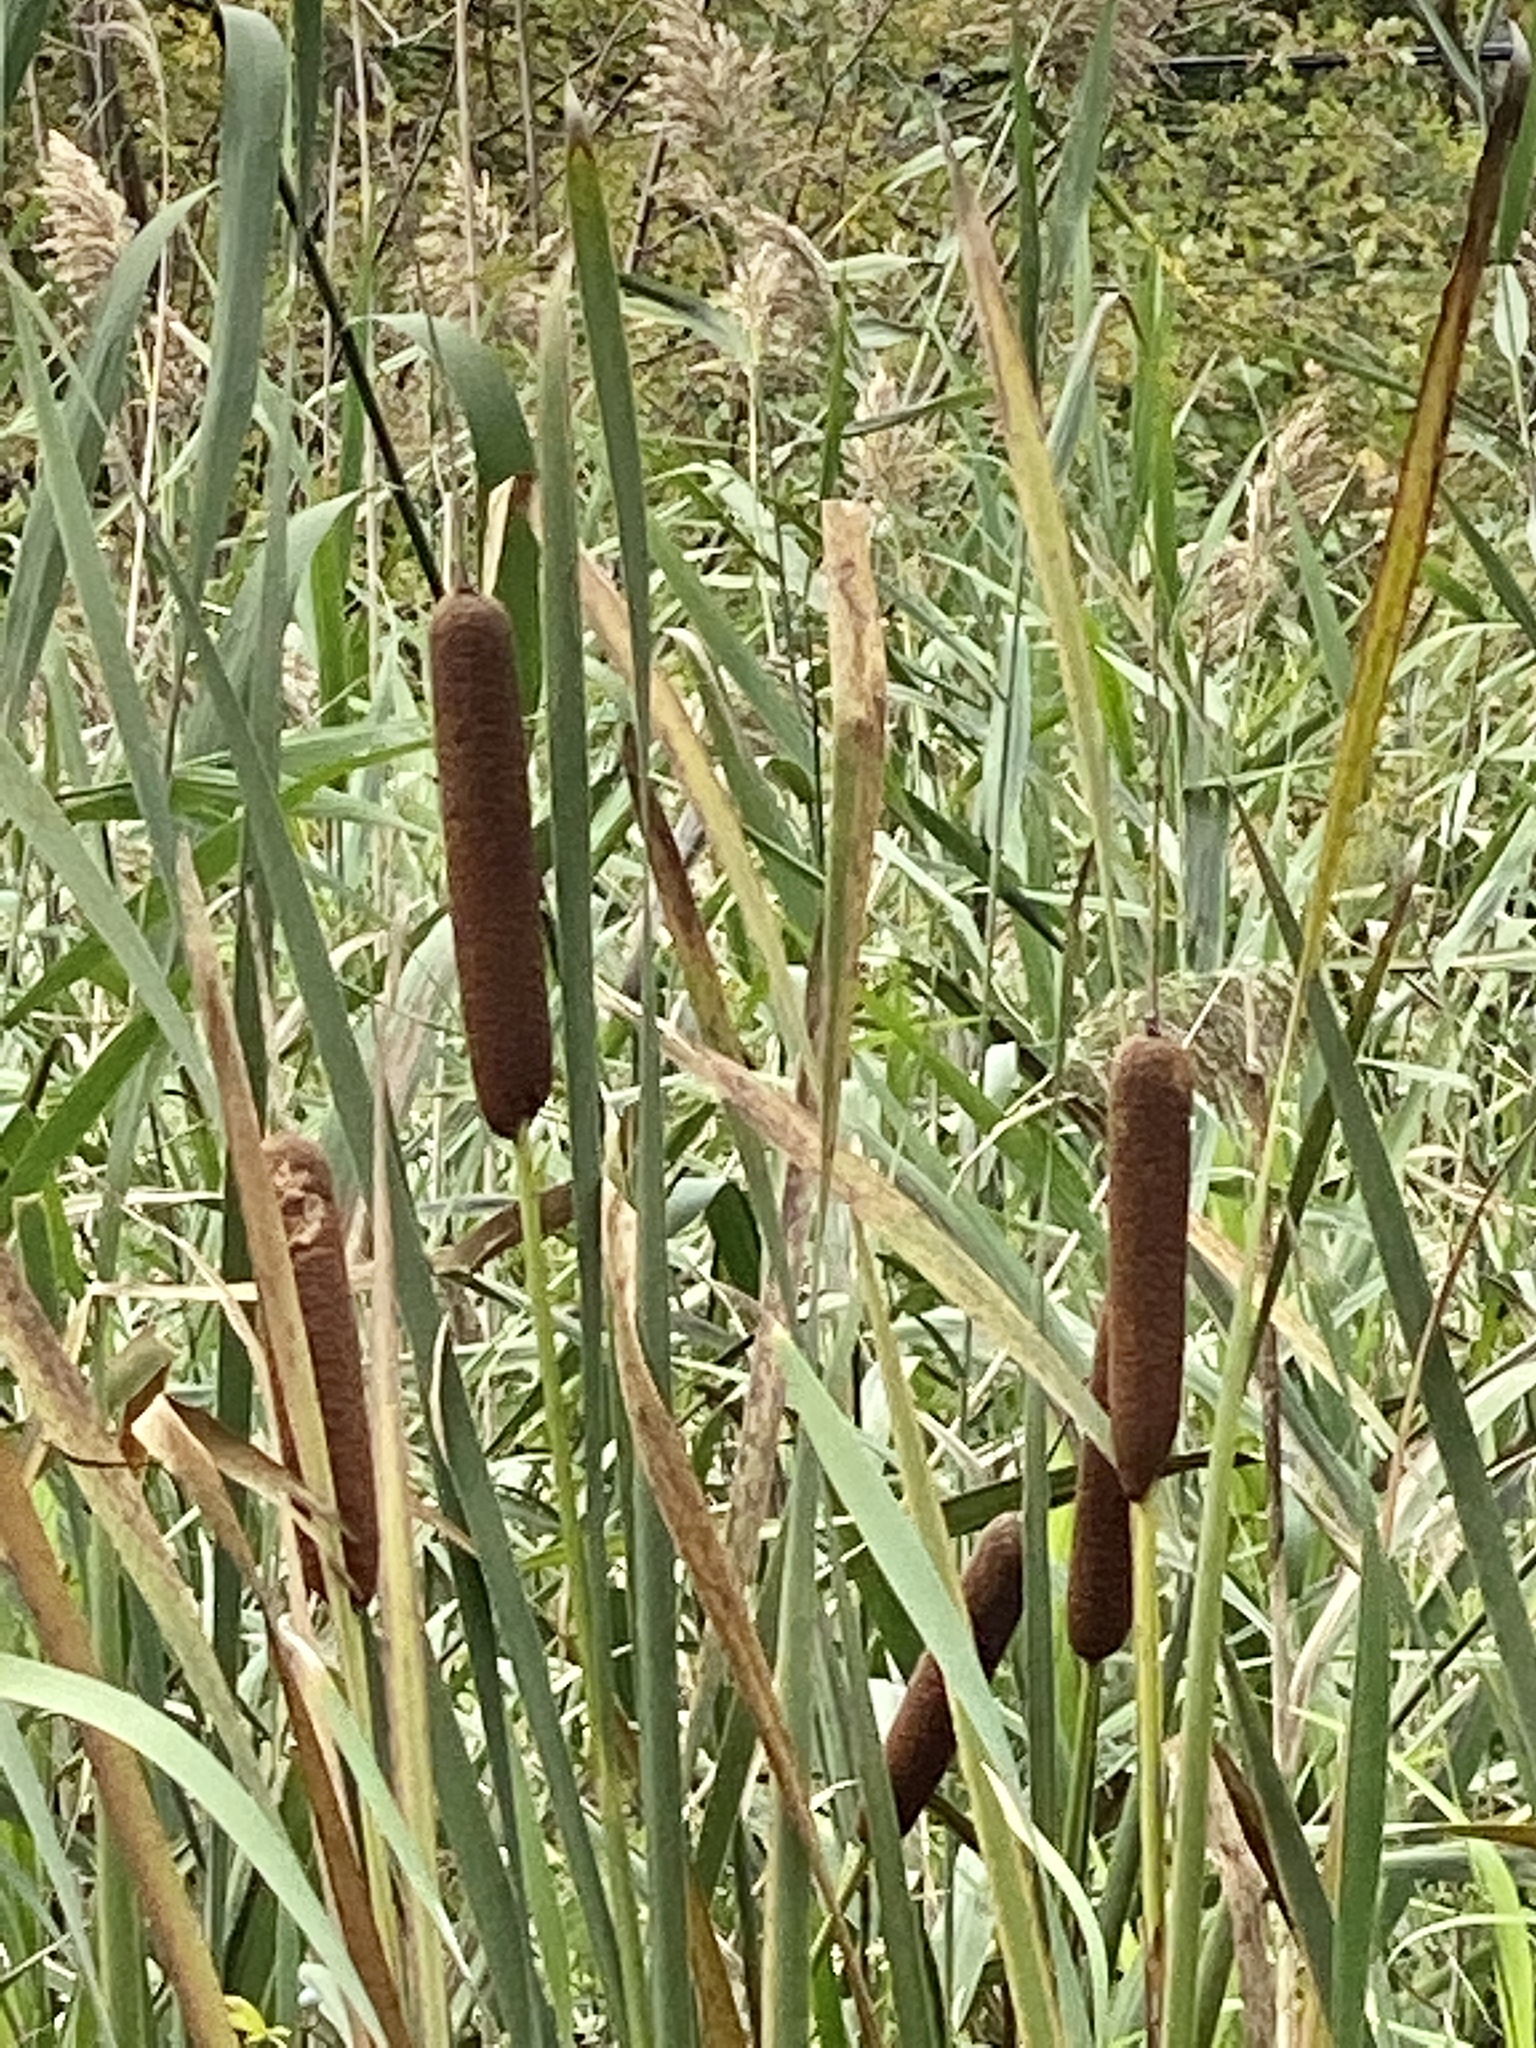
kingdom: Plantae
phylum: Tracheophyta
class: Liliopsida
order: Poales
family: Typhaceae
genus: Typha
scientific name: Typha latifolia
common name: Broadleaf cattail
